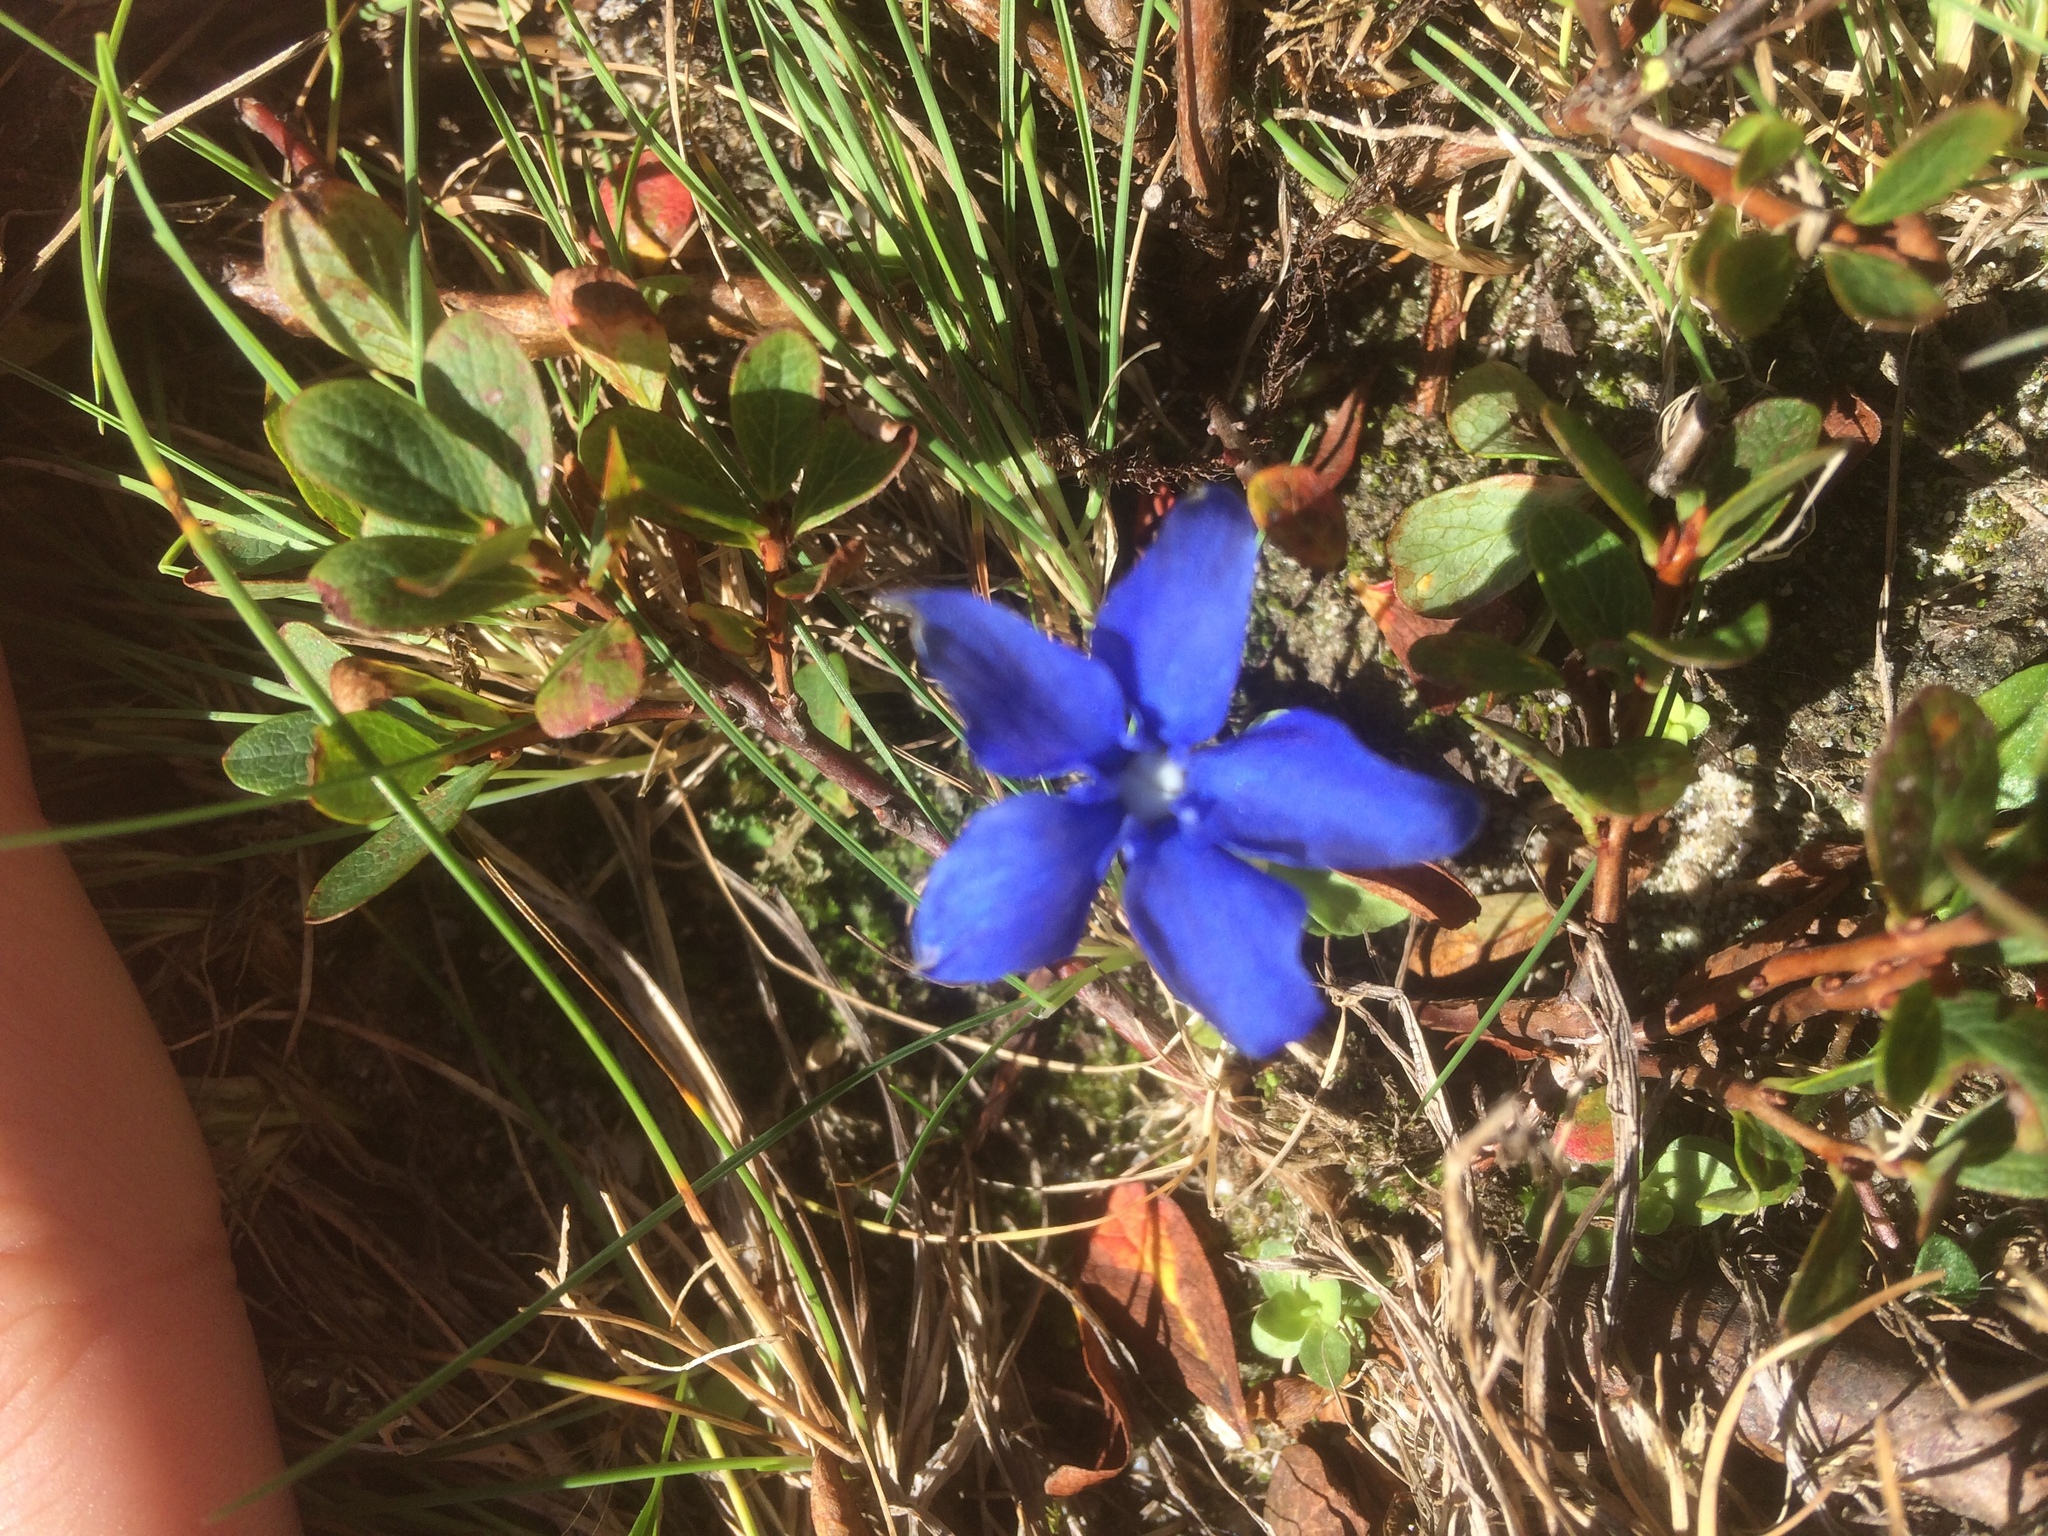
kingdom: Plantae
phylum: Tracheophyta
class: Magnoliopsida
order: Gentianales
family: Gentianaceae
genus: Gentiana
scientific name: Gentiana verna
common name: Spring gentian
